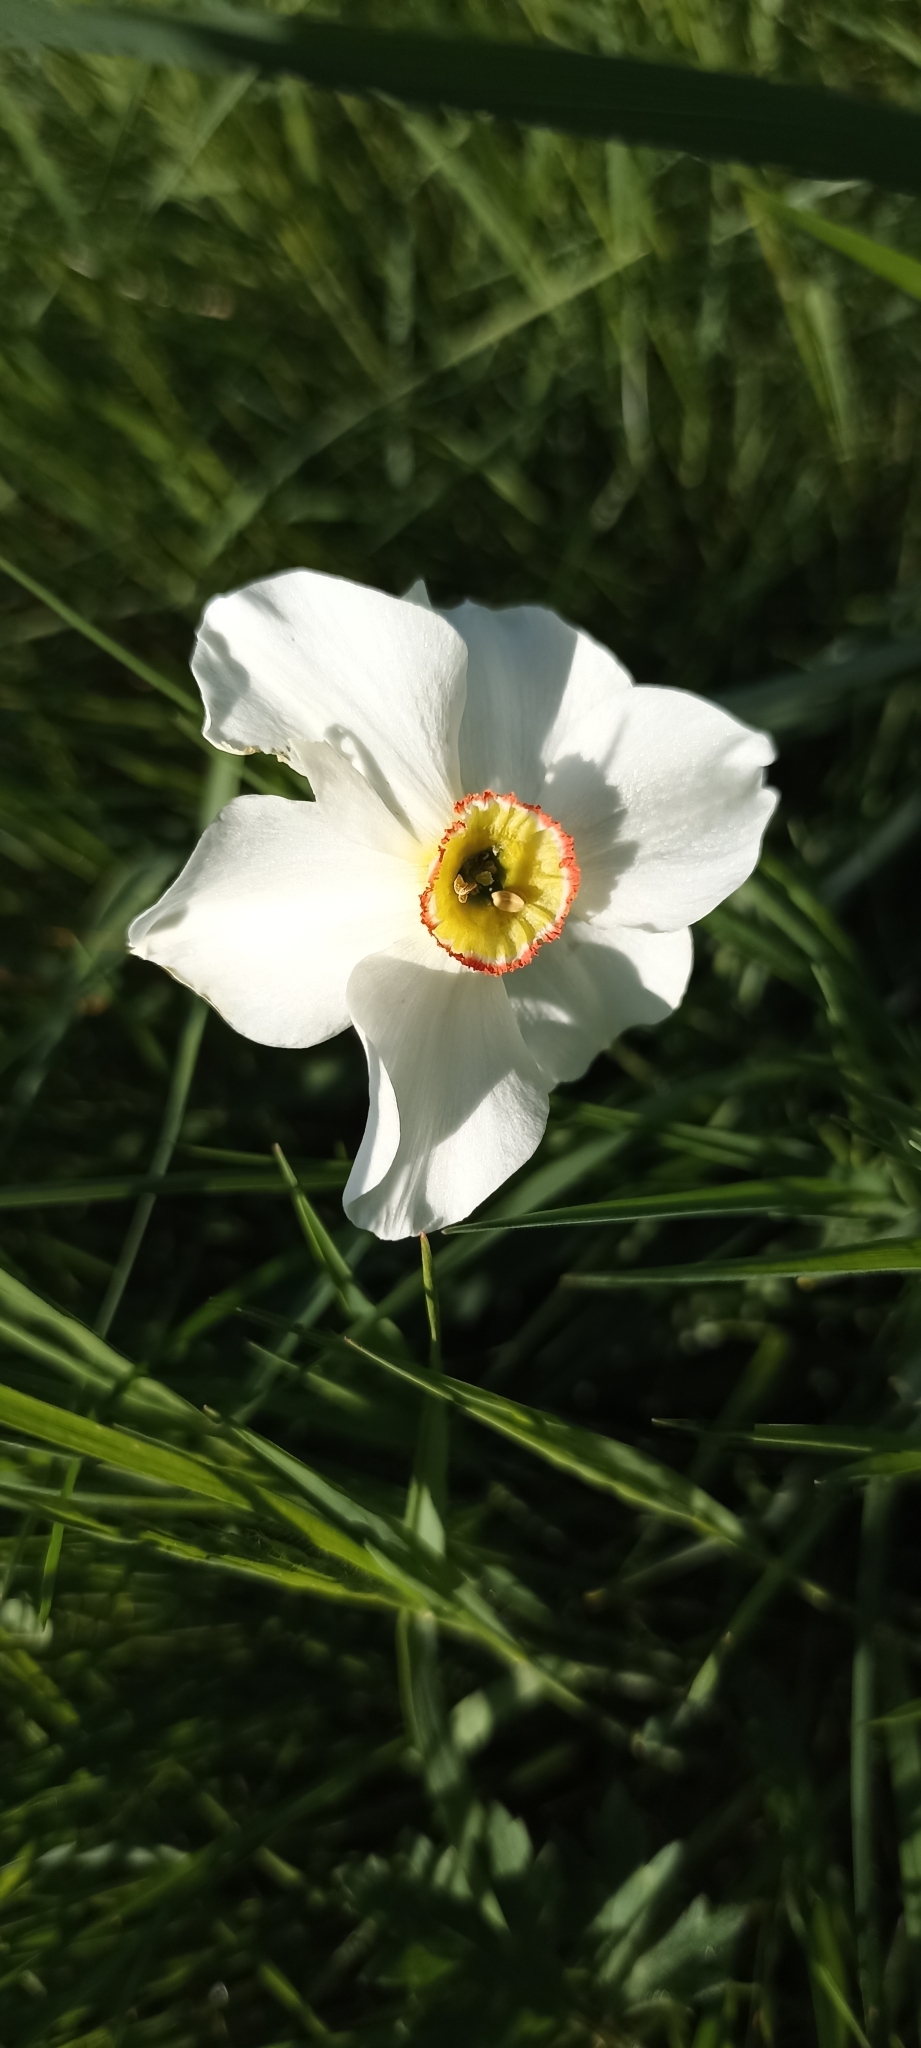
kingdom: Plantae
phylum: Tracheophyta
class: Liliopsida
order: Asparagales
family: Amaryllidaceae
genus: Narcissus
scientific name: Narcissus poeticus
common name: Pheasant's-eye daffodil
